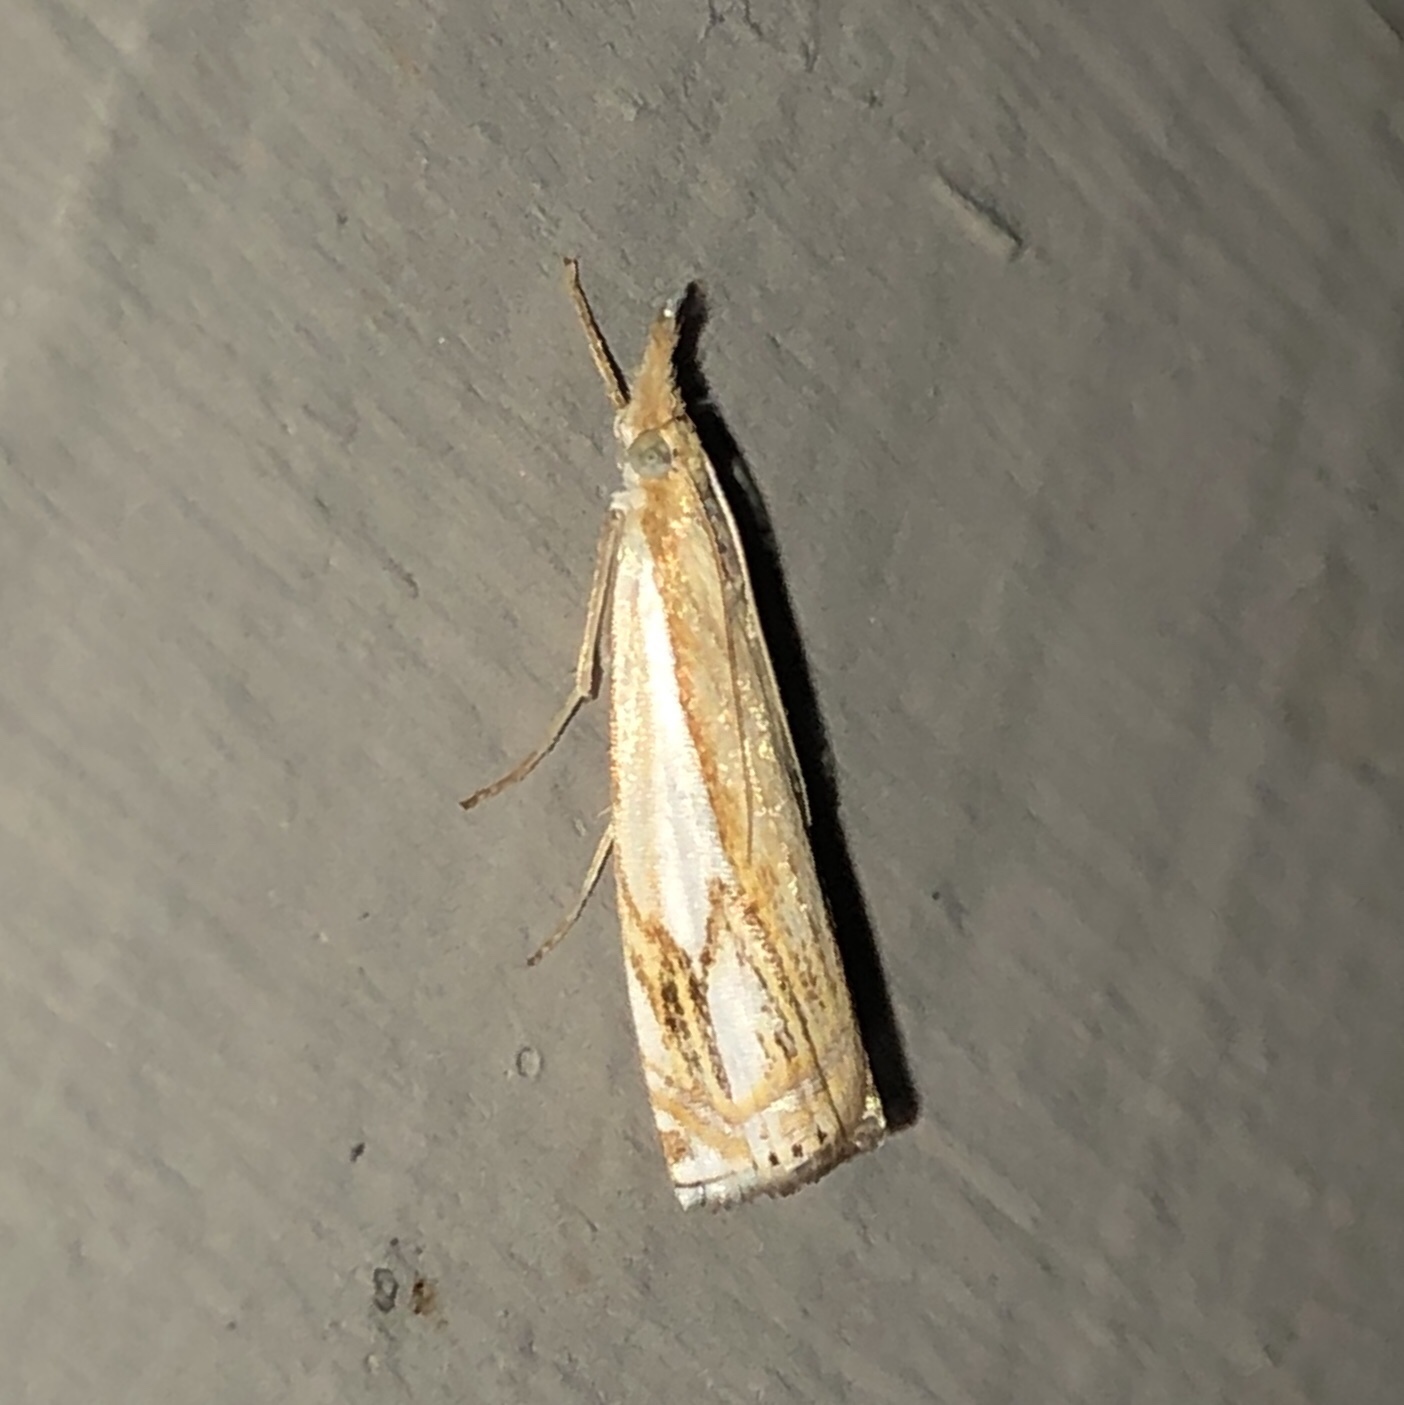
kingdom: Animalia
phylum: Arthropoda
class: Insecta
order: Lepidoptera
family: Crambidae
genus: Crambus
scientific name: Crambus agitatellus
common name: Double-banded grass-veneer
